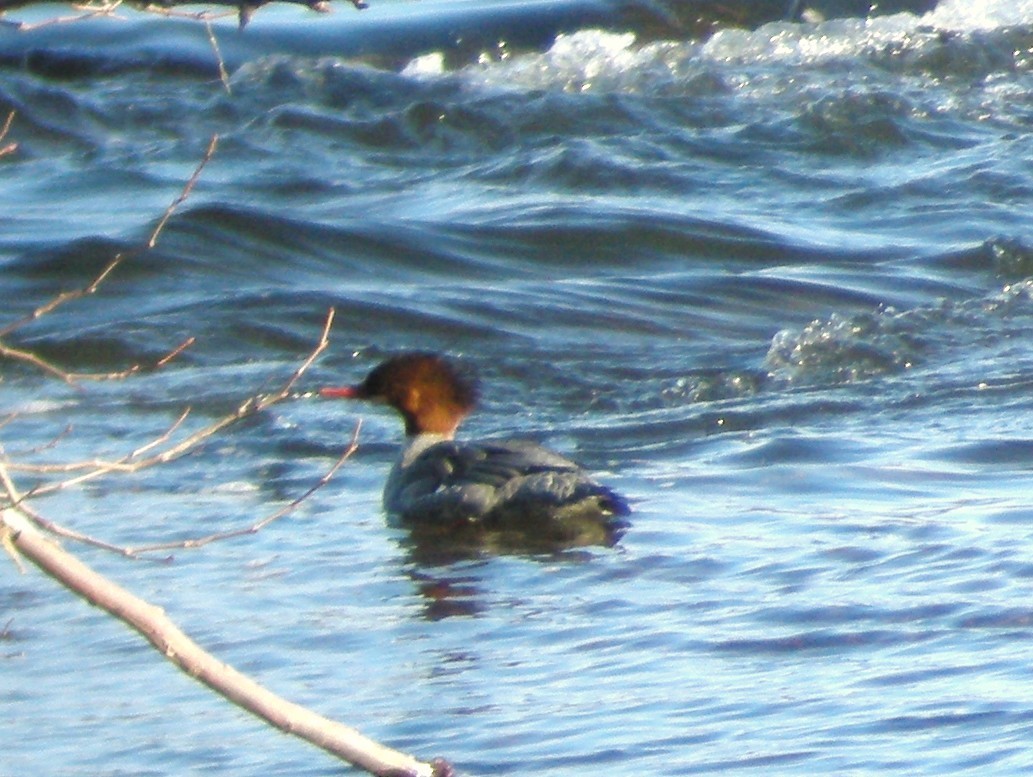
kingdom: Animalia
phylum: Chordata
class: Aves
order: Anseriformes
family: Anatidae
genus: Mergus
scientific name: Mergus merganser
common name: Common merganser
